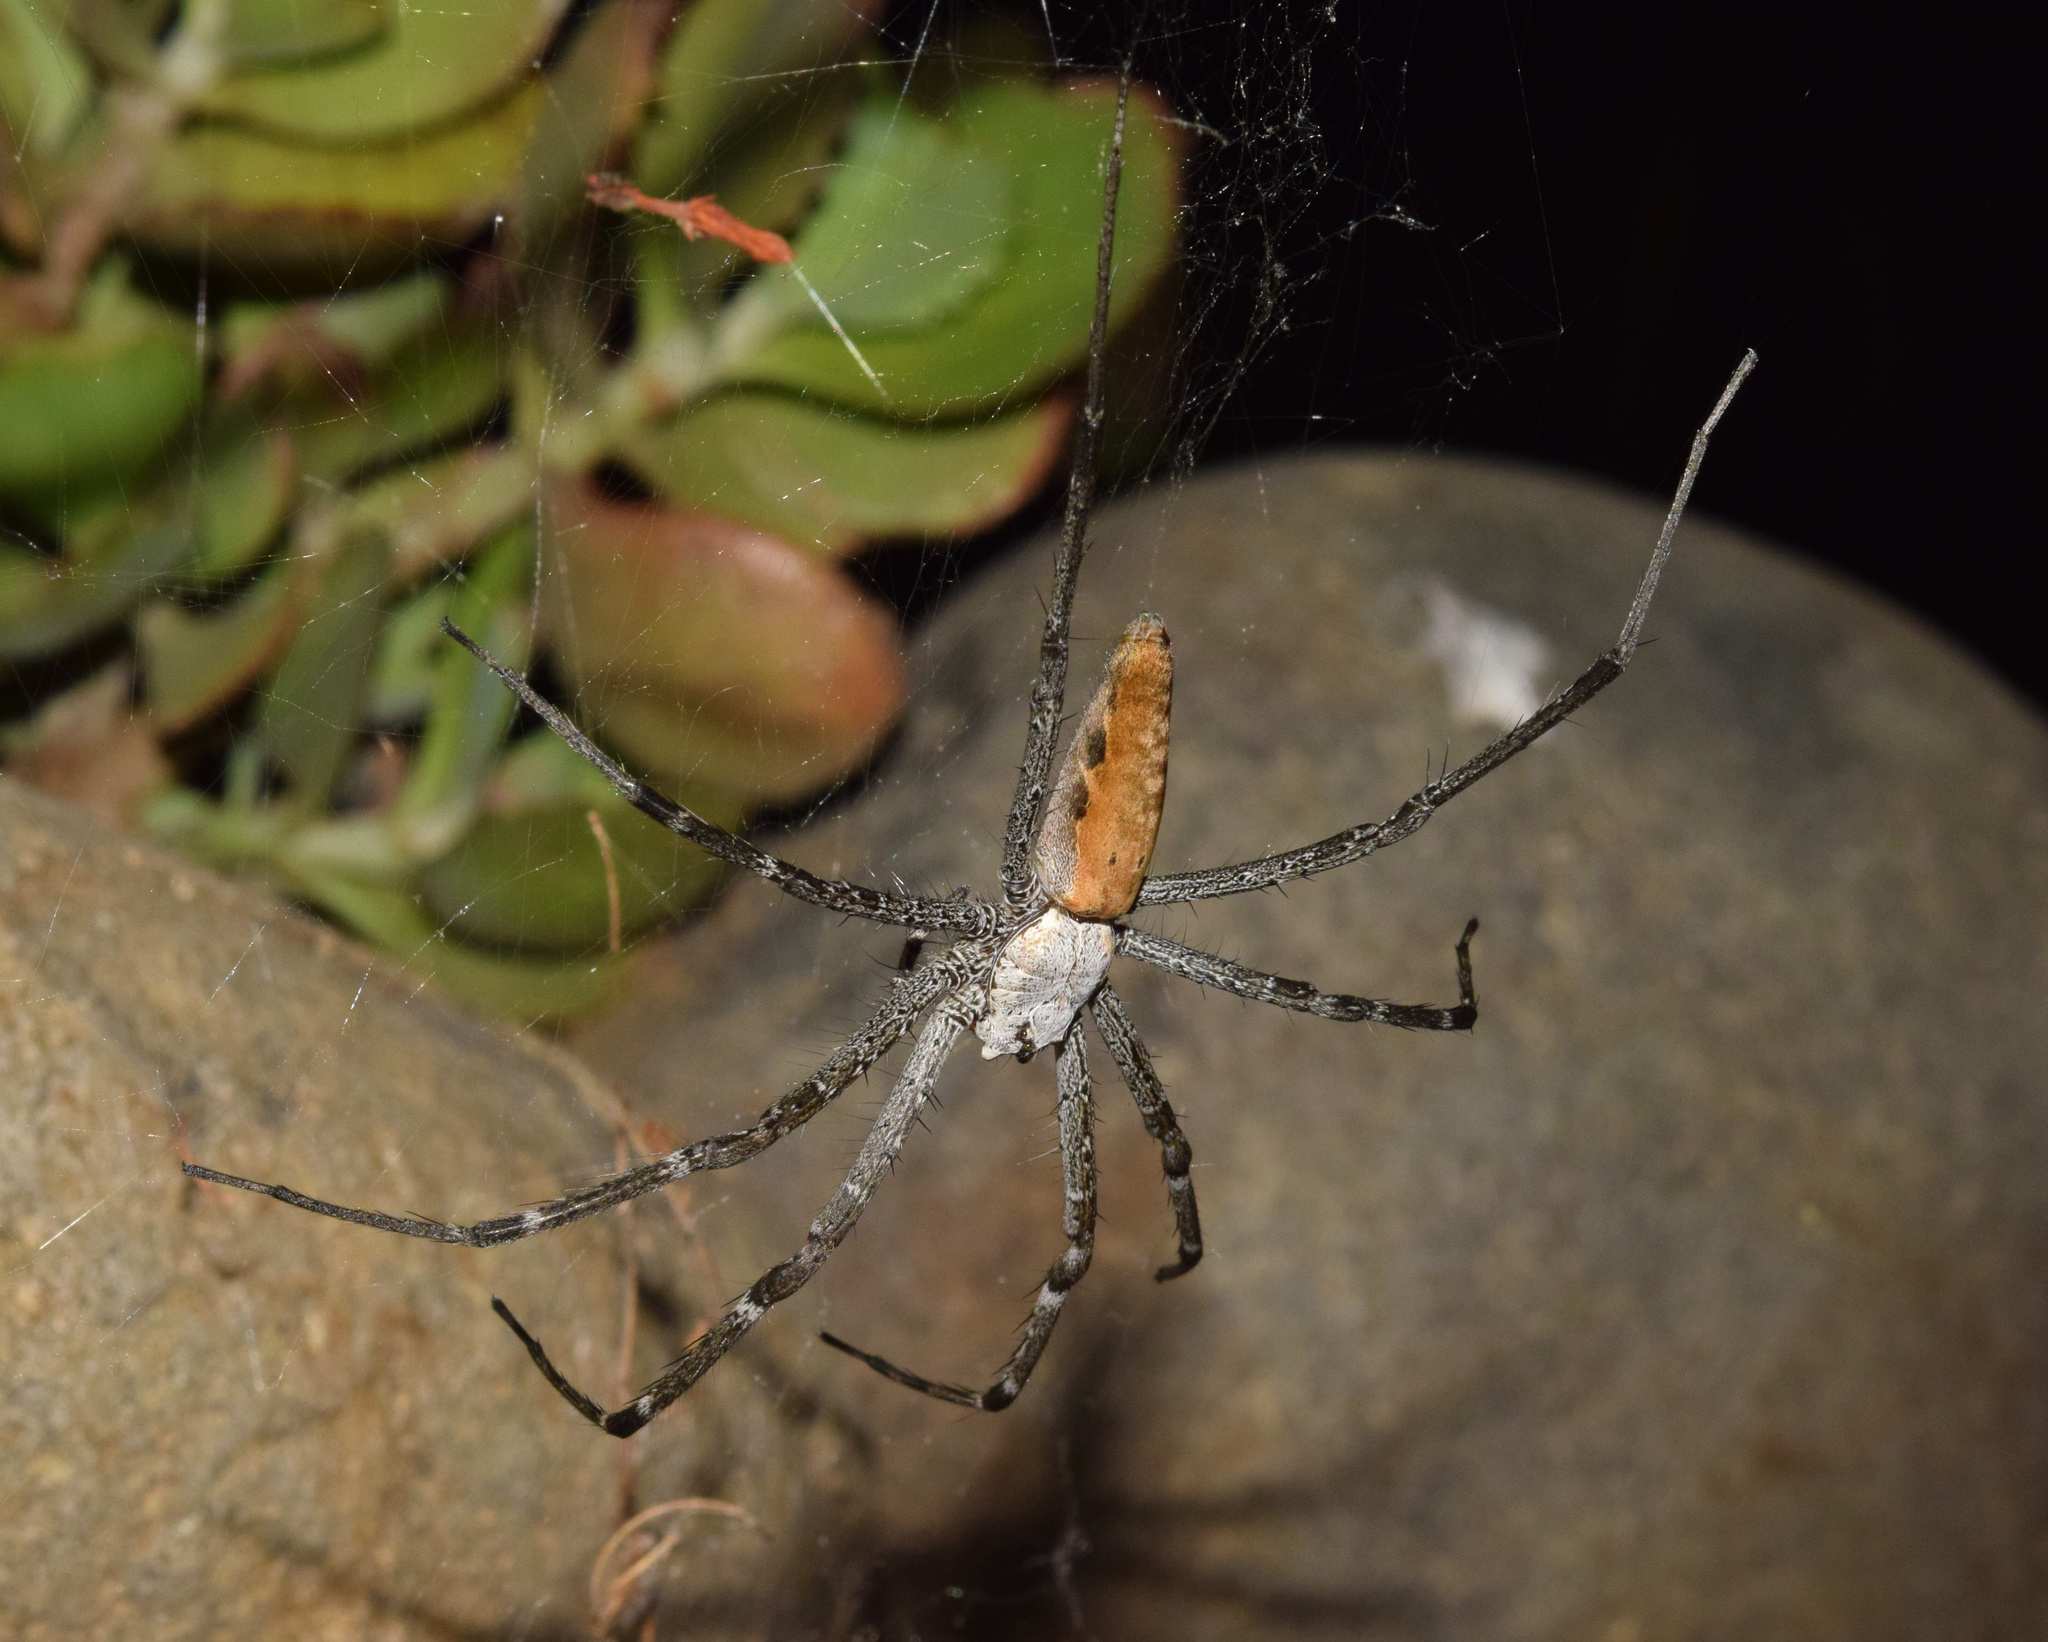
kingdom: Animalia
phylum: Arthropoda
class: Arachnida
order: Araneae
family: Pisauridae
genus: Euprosthenops
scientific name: Euprosthenops australis
